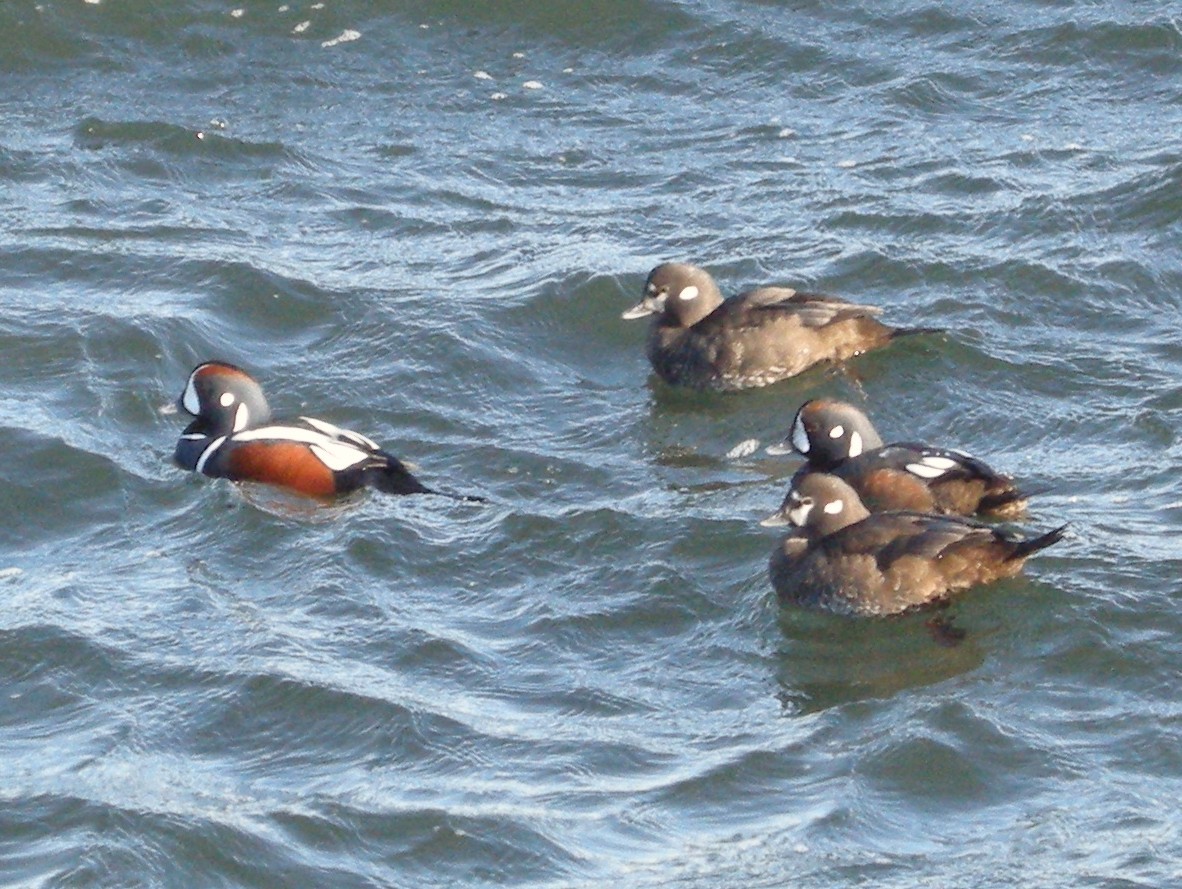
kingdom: Animalia
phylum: Chordata
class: Aves
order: Anseriformes
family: Anatidae
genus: Histrionicus
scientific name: Histrionicus histrionicus
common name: Harlequin duck
